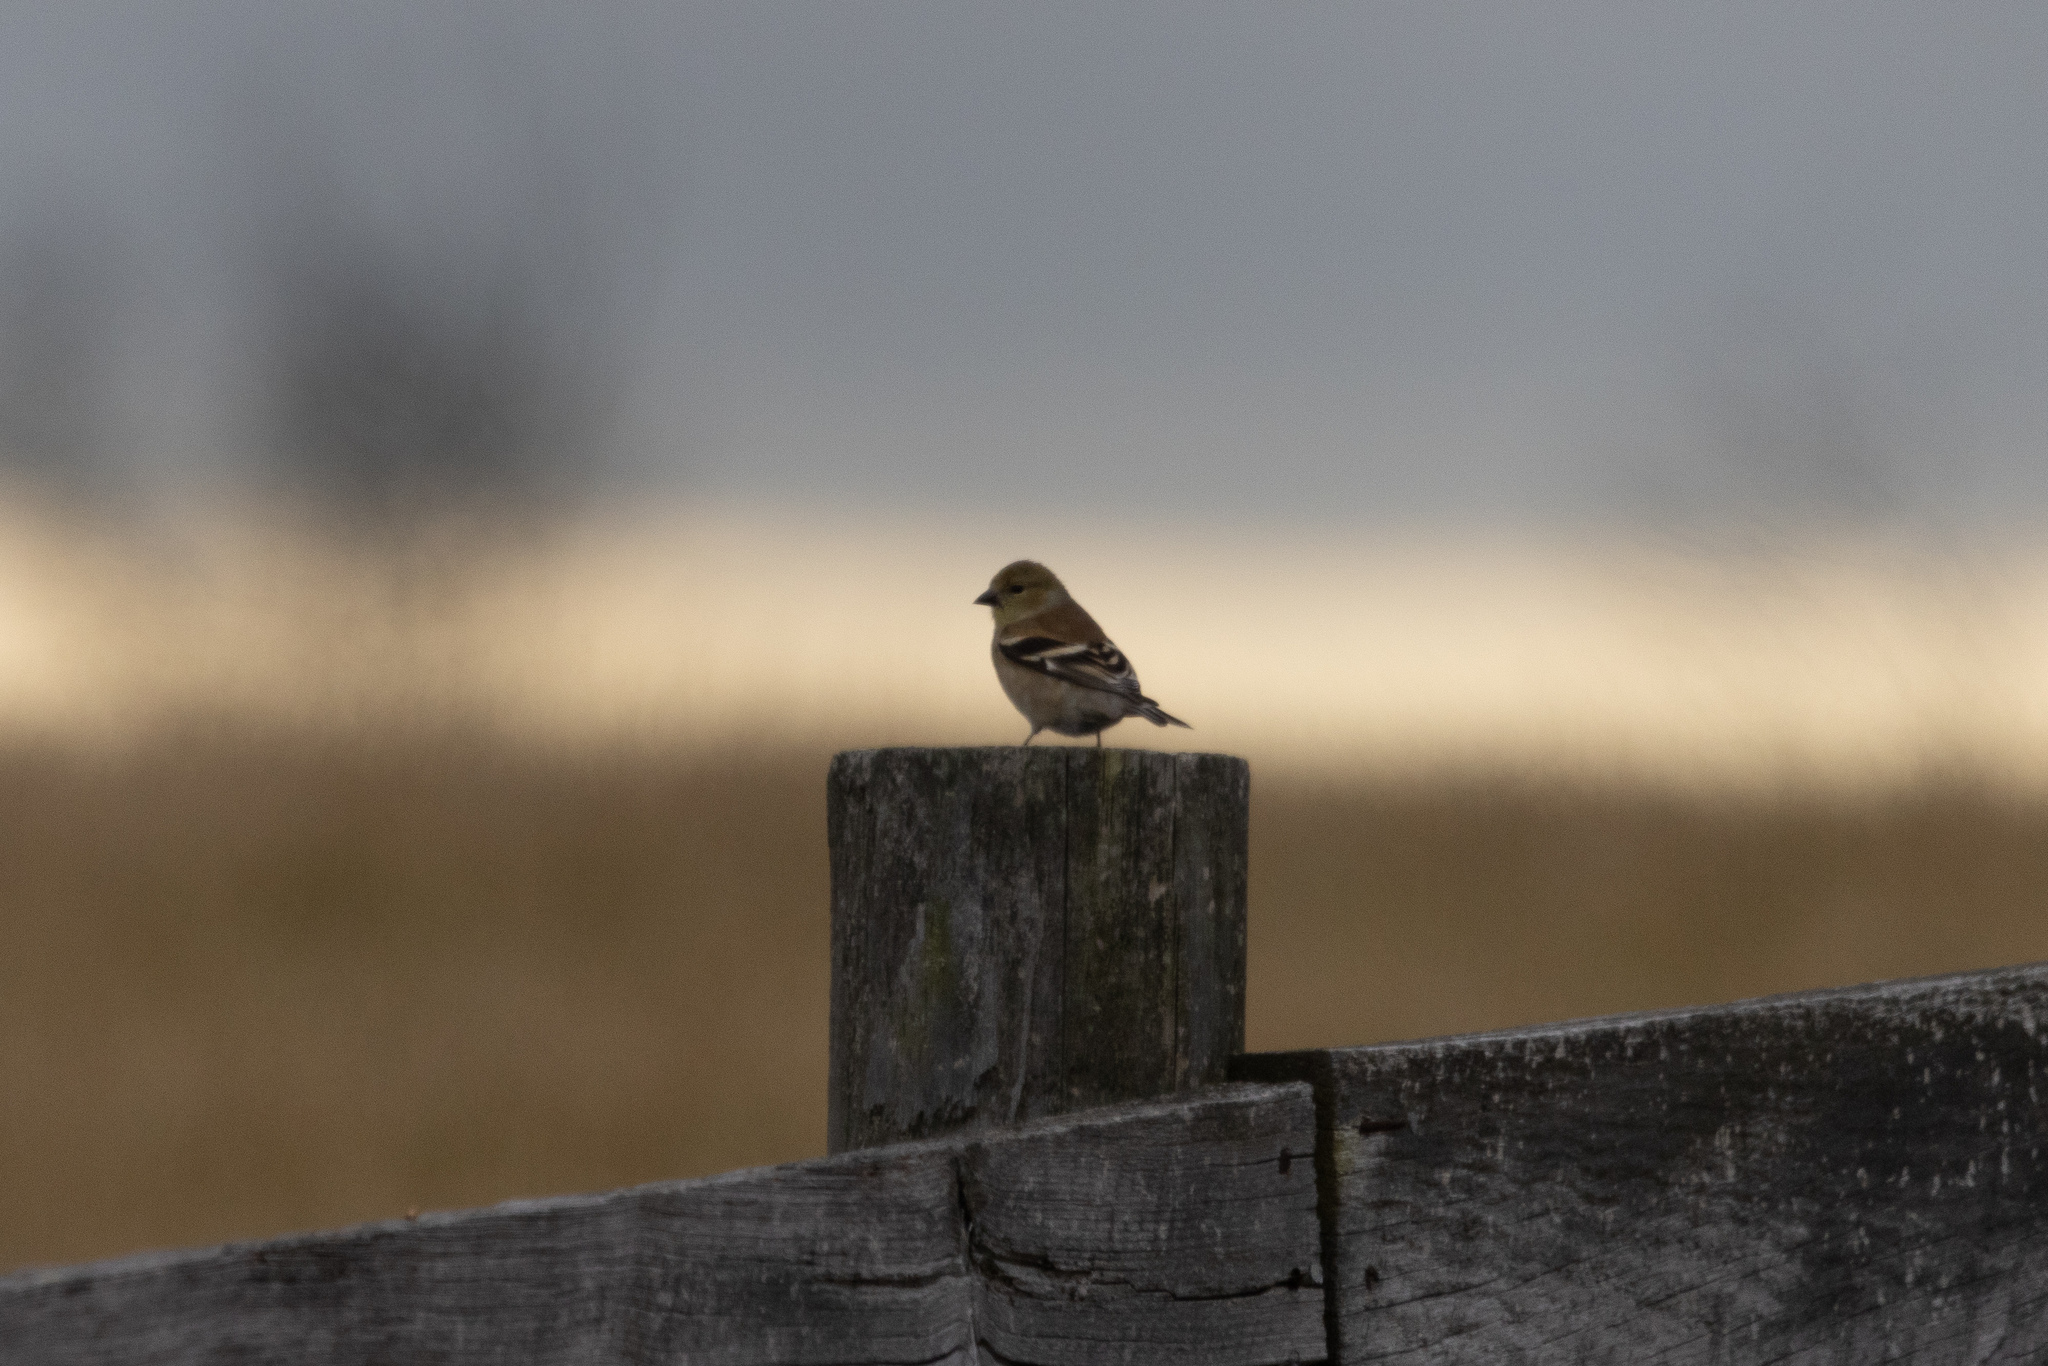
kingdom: Animalia
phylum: Chordata
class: Aves
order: Passeriformes
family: Fringillidae
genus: Spinus
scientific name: Spinus tristis
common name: American goldfinch
